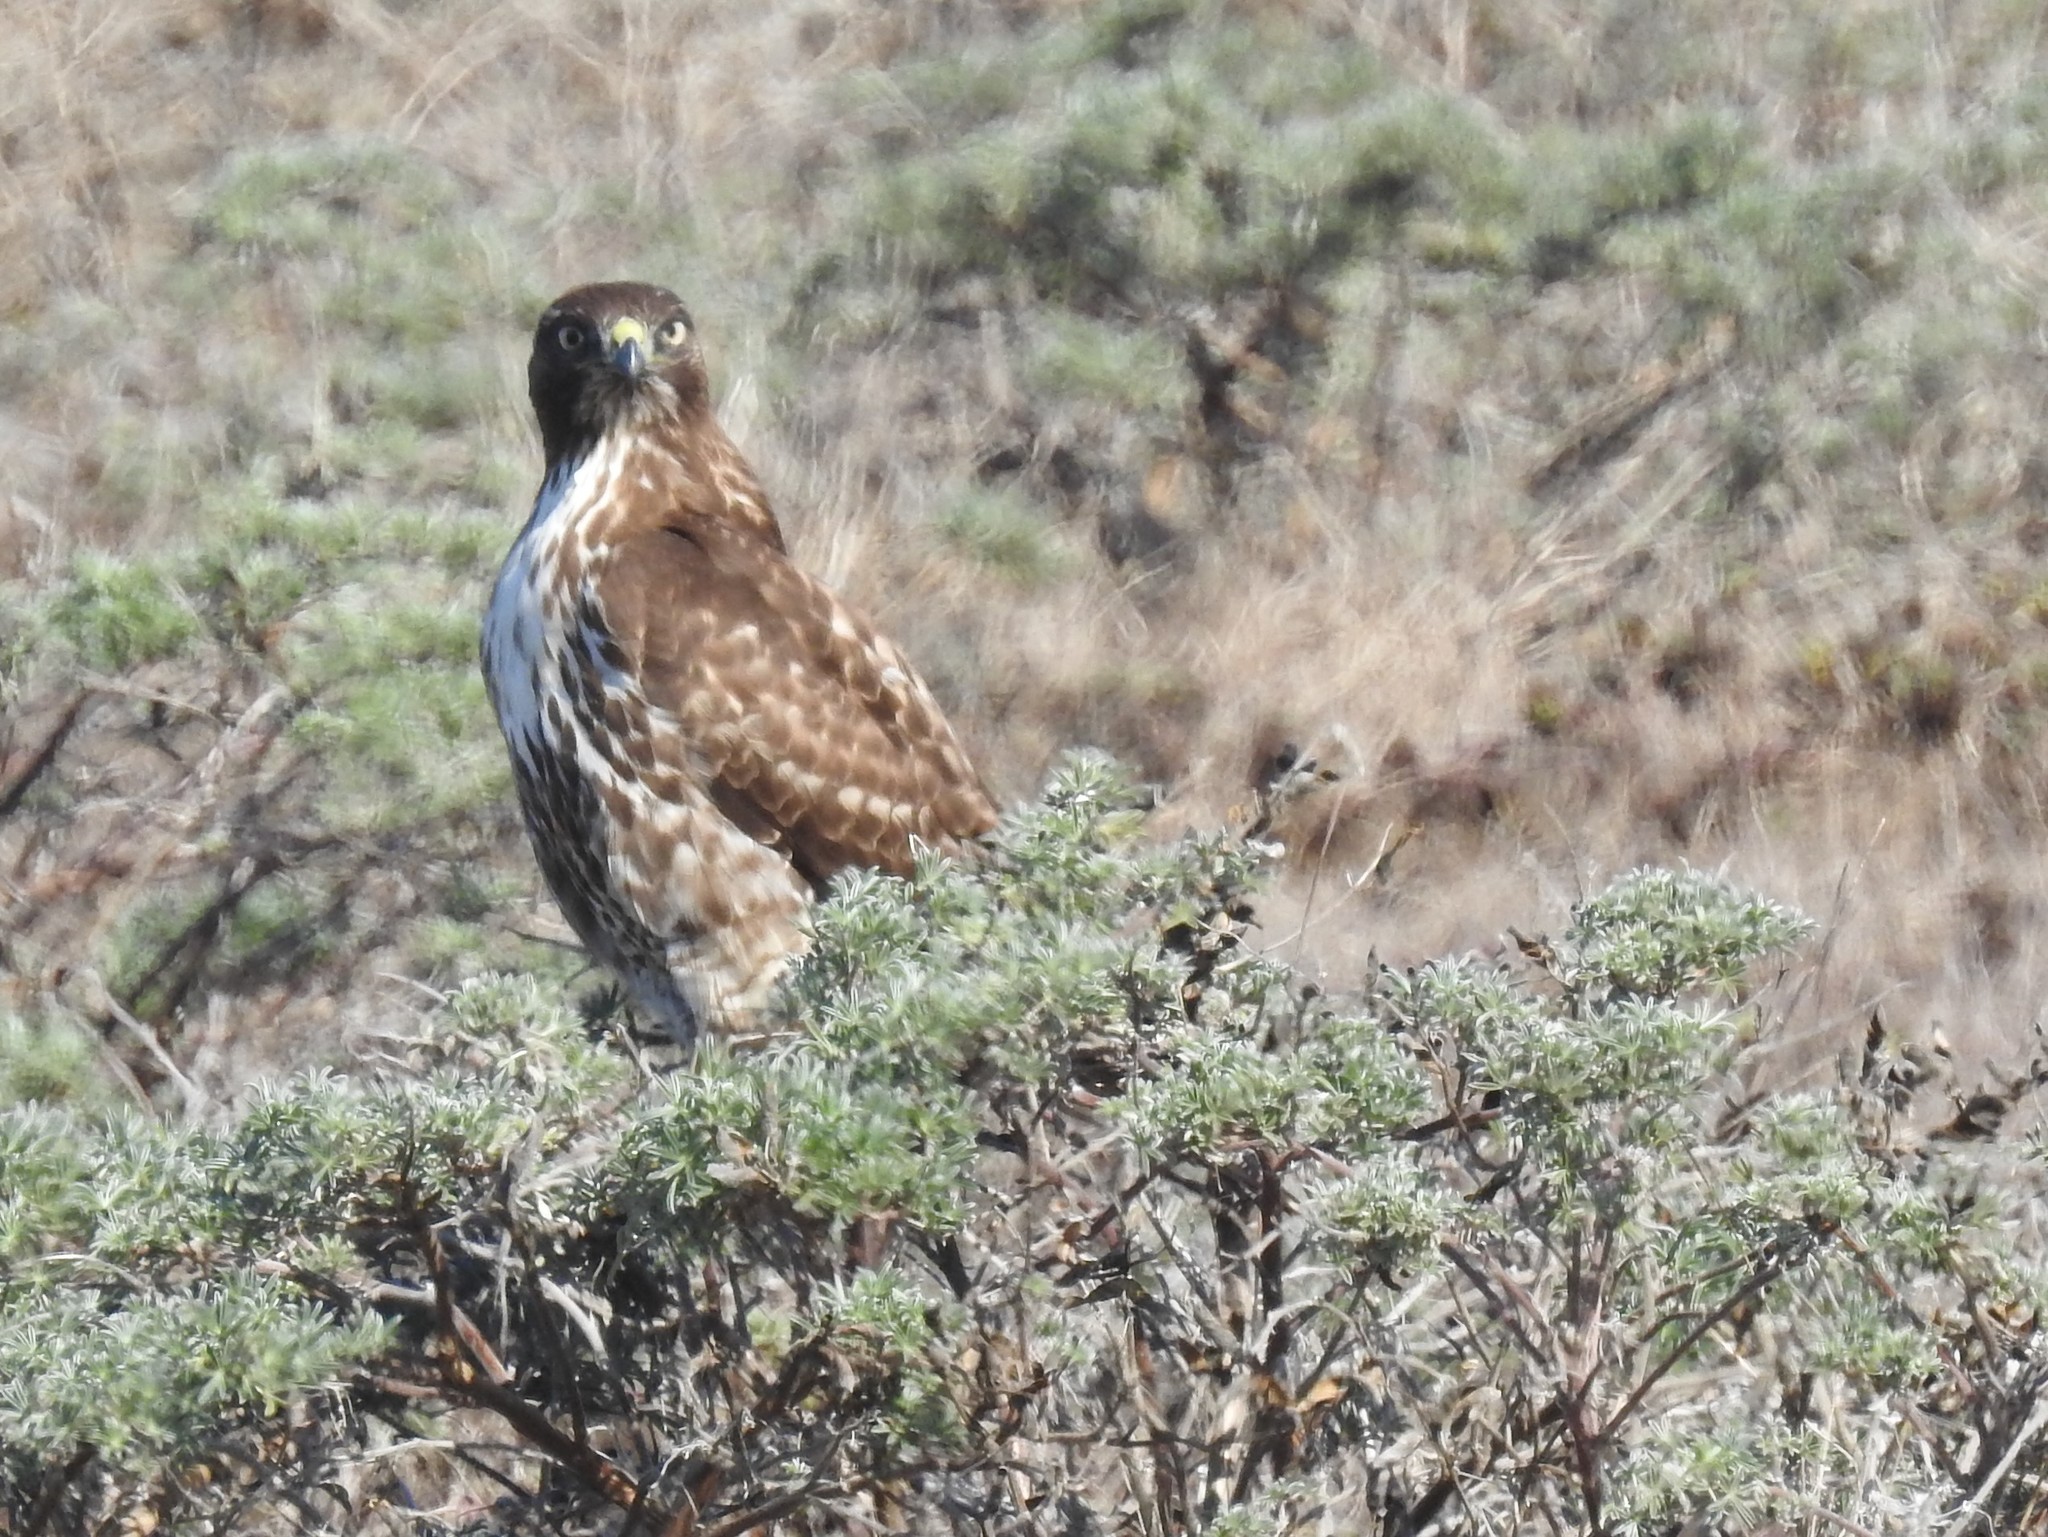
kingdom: Animalia
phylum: Chordata
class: Aves
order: Accipitriformes
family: Accipitridae
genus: Buteo
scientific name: Buteo jamaicensis
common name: Red-tailed hawk
